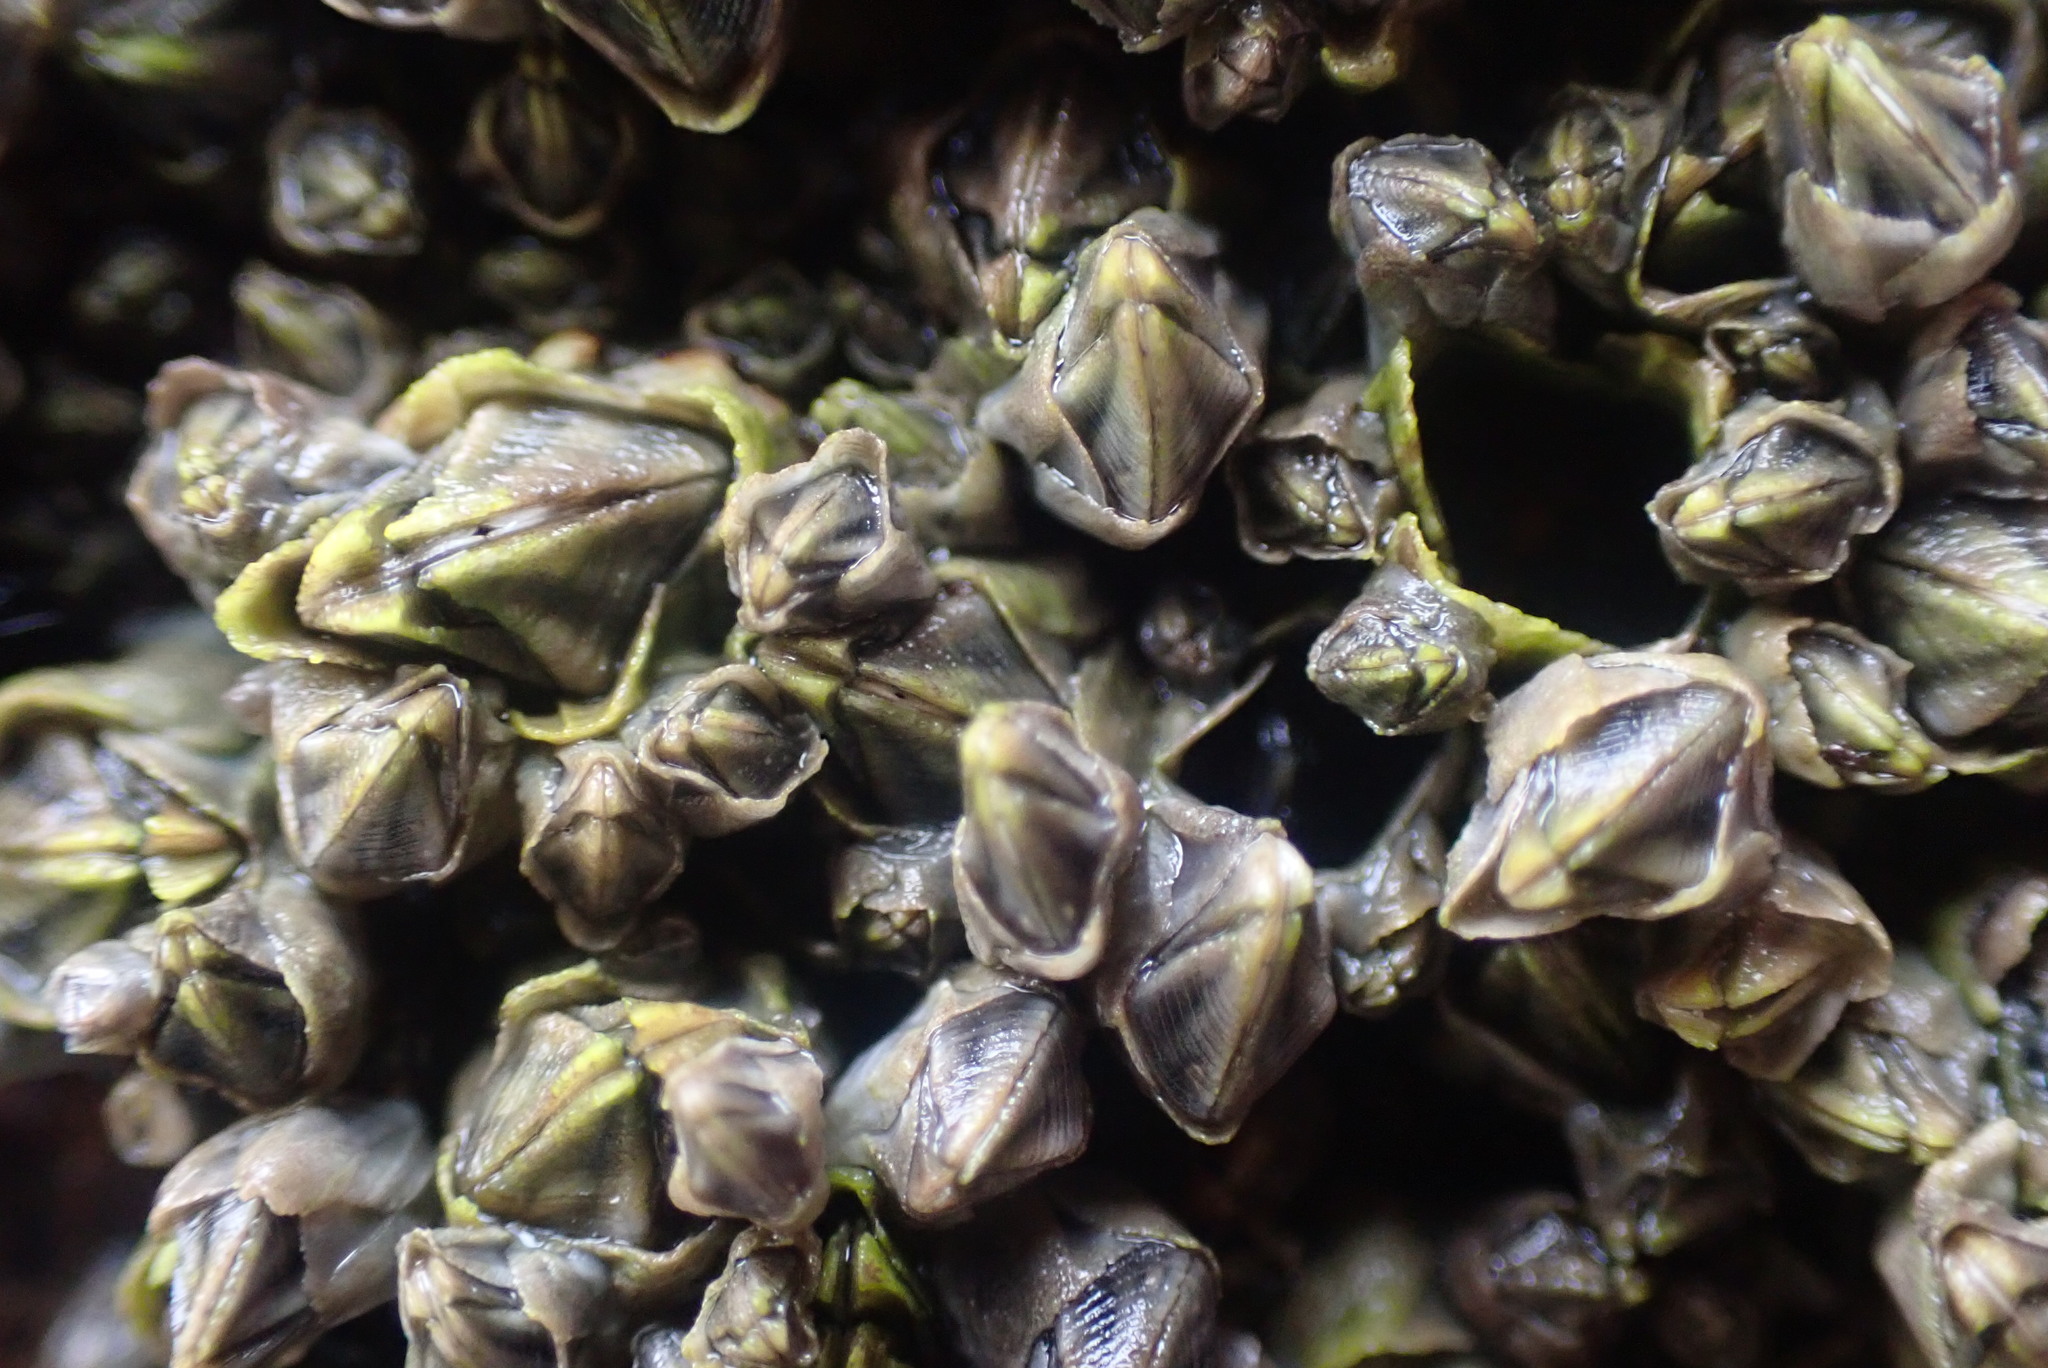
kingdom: Animalia
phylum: Arthropoda
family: Elminiidae
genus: Austrominius
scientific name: Austrominius modestus
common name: Australasian barnacle
